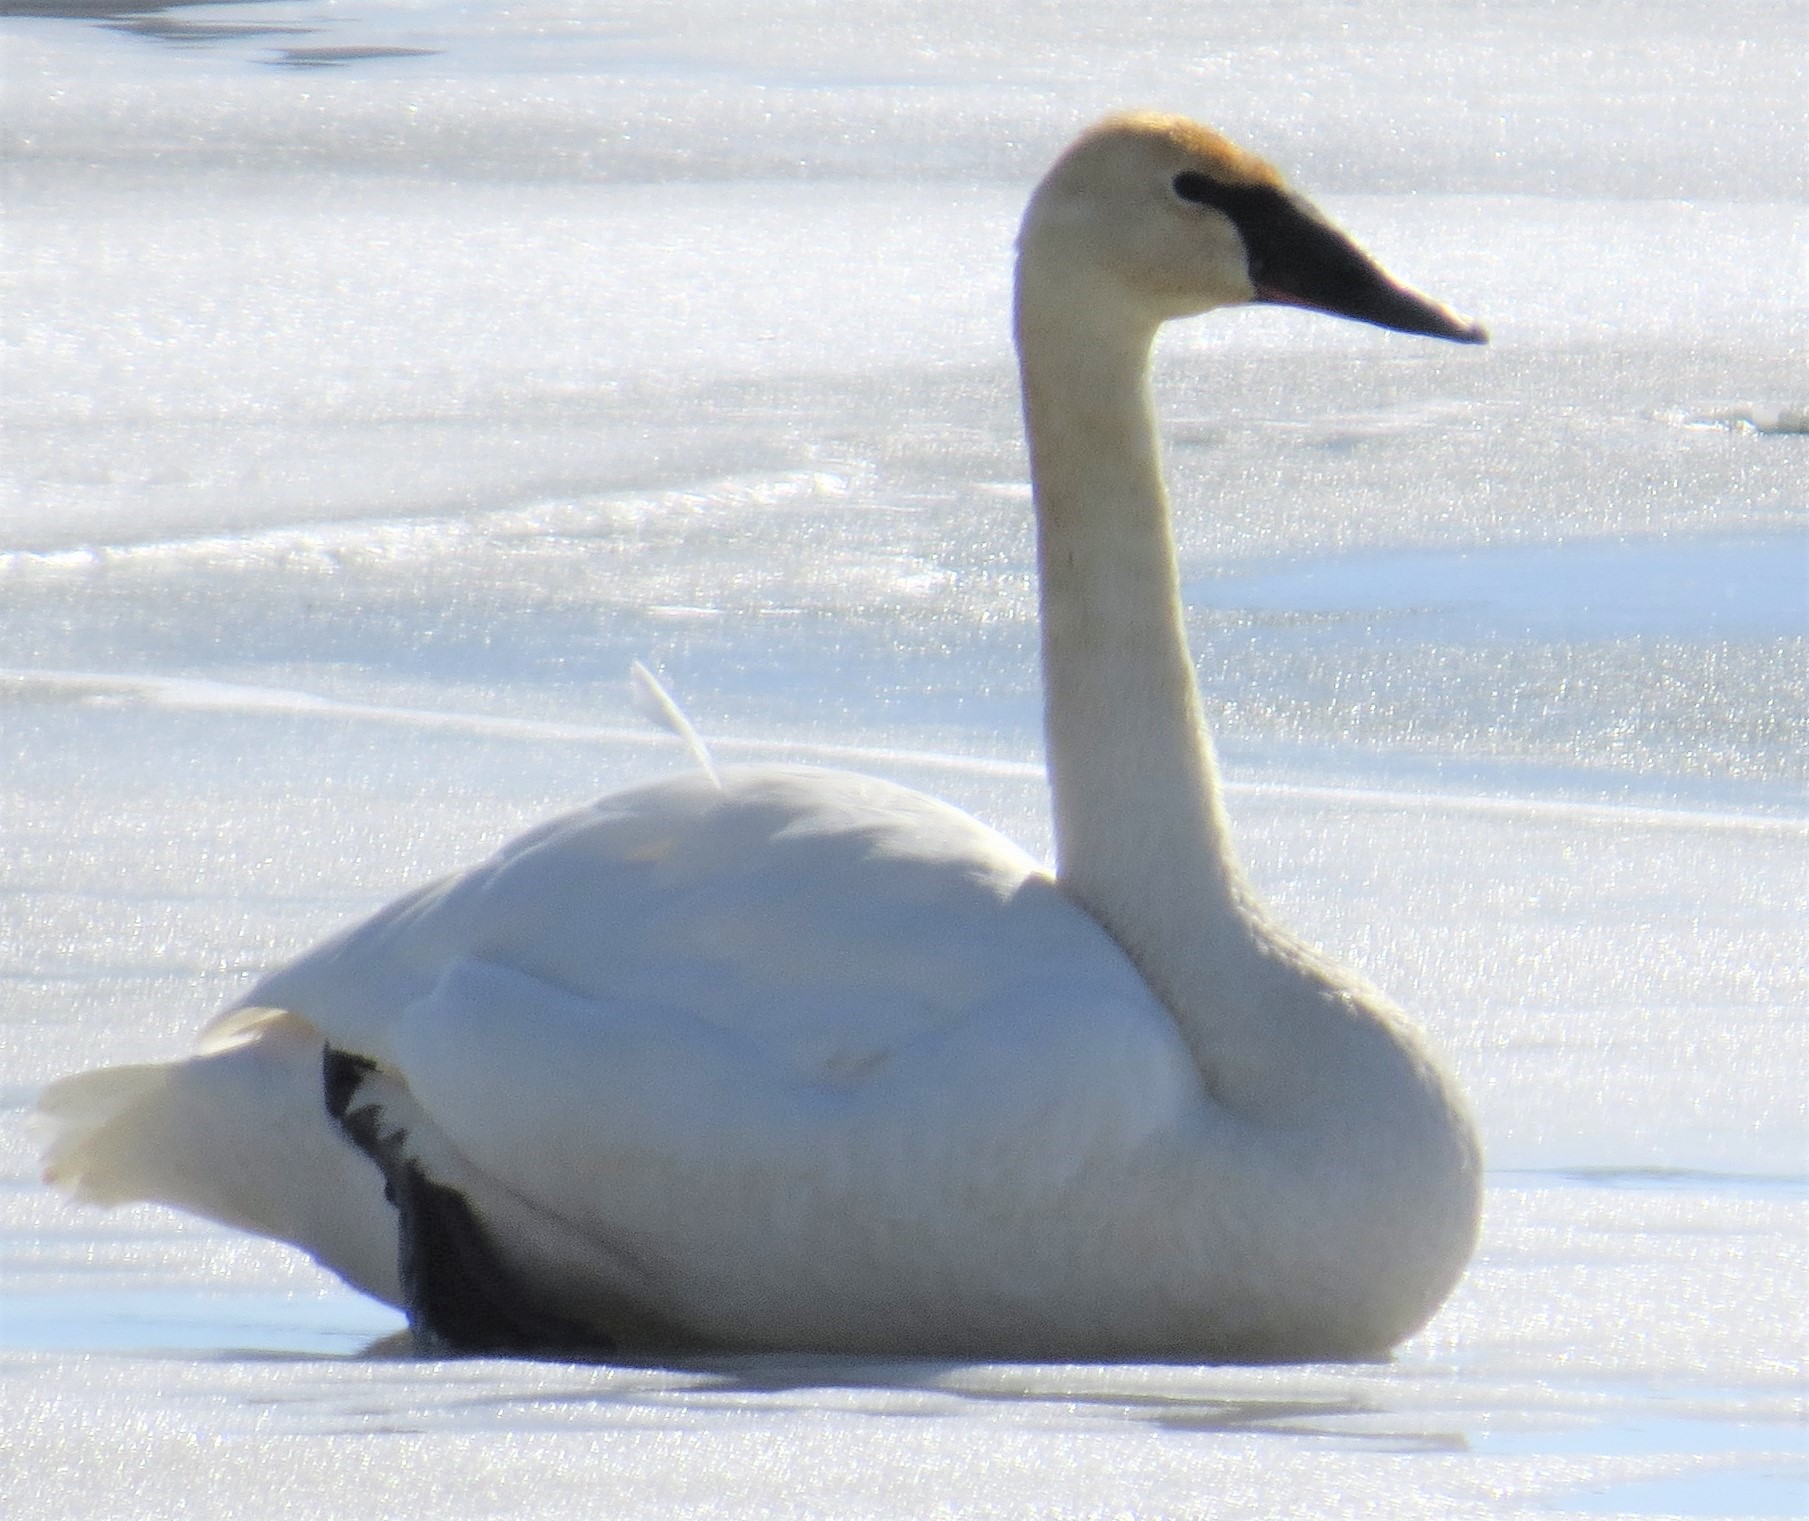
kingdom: Animalia
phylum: Chordata
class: Aves
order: Anseriformes
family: Anatidae
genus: Cygnus
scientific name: Cygnus buccinator
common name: Trumpeter swan
